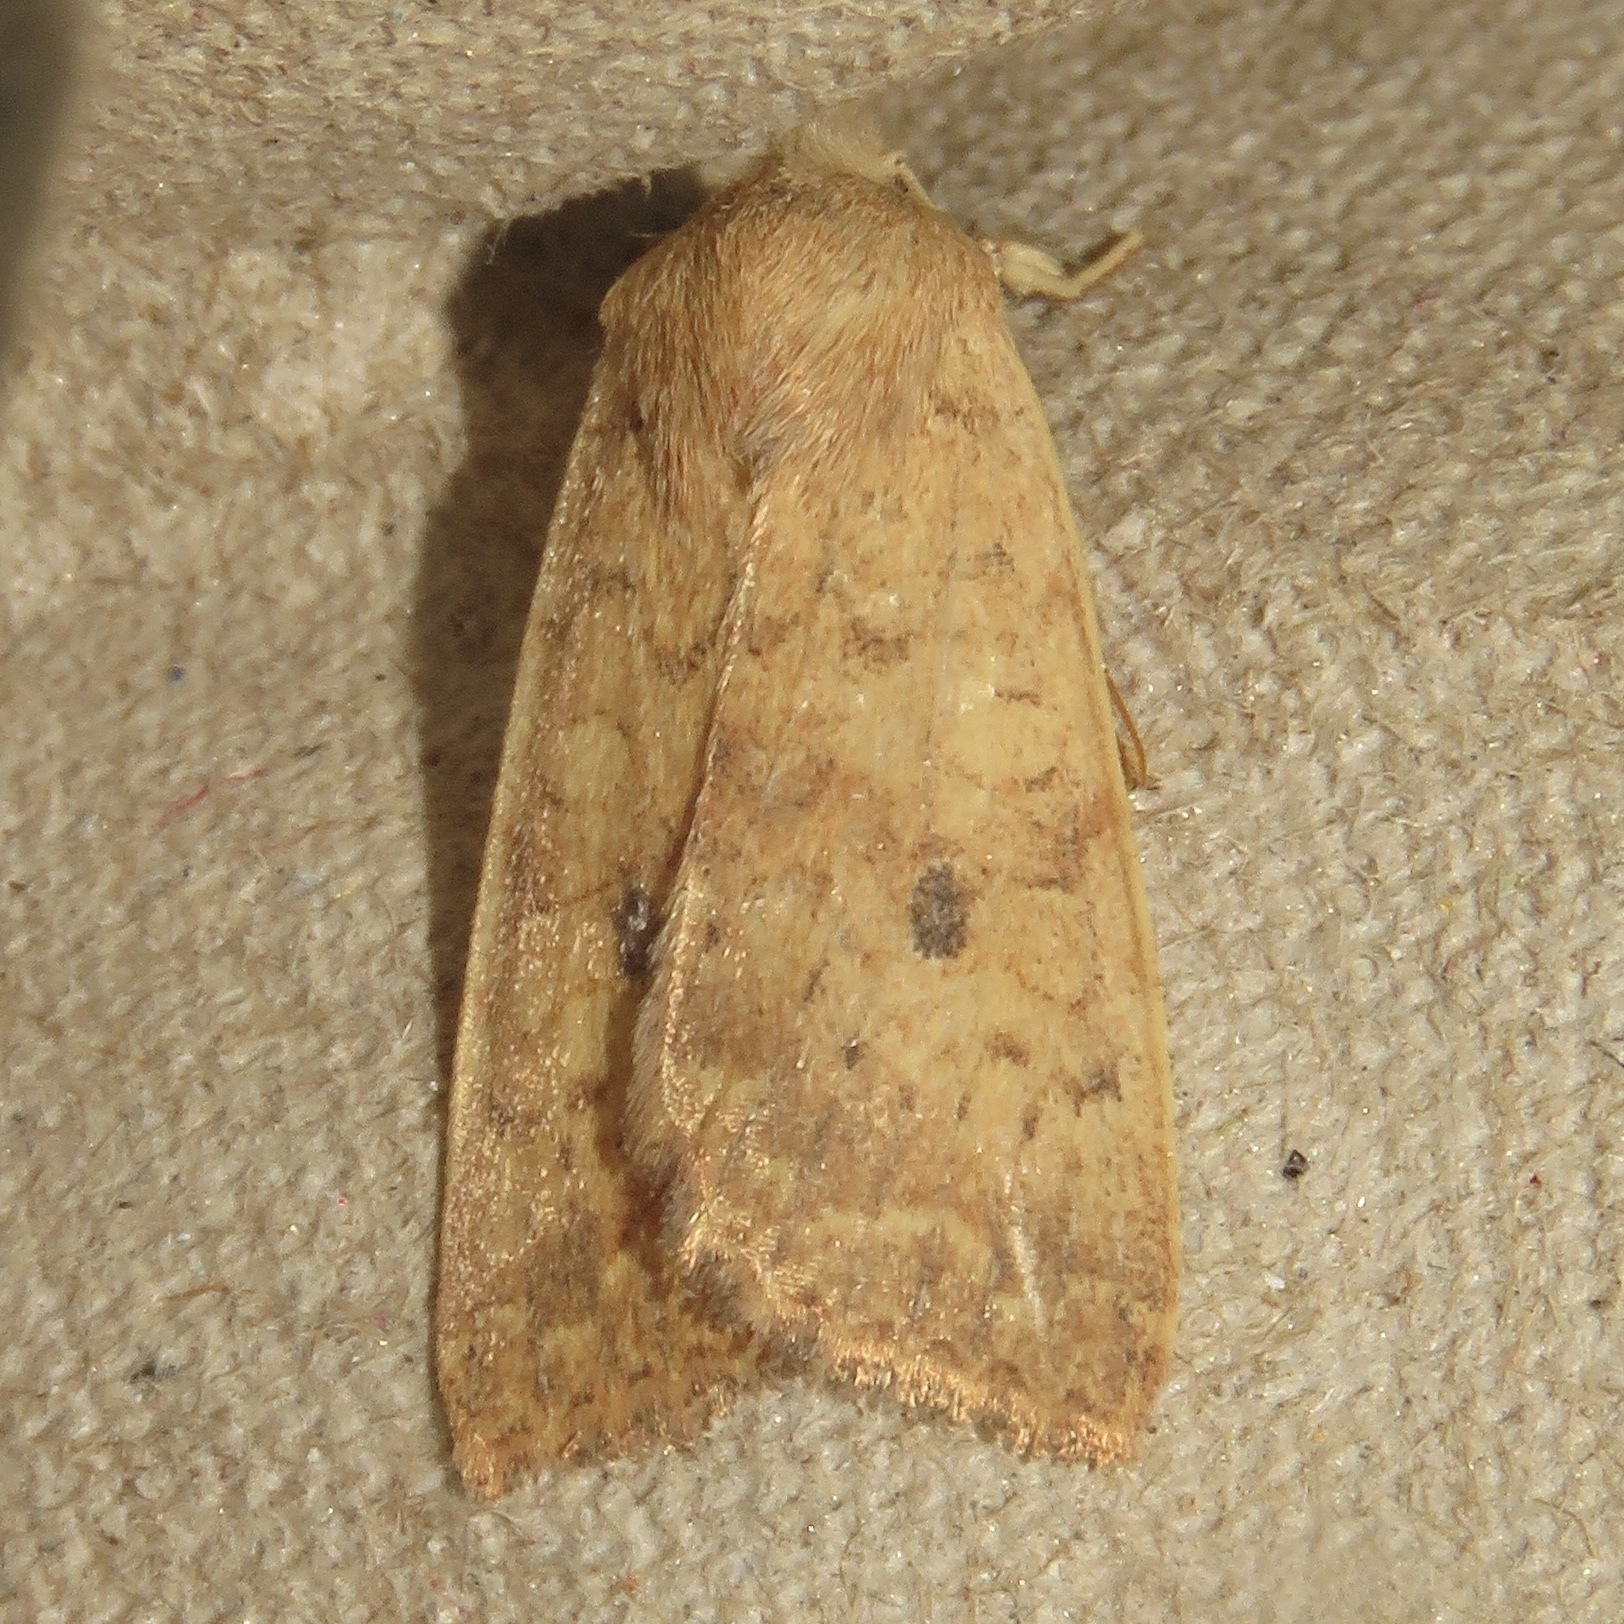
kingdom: Animalia
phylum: Arthropoda
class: Insecta
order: Lepidoptera
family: Noctuidae
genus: Agrochola
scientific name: Agrochola bicolorago
